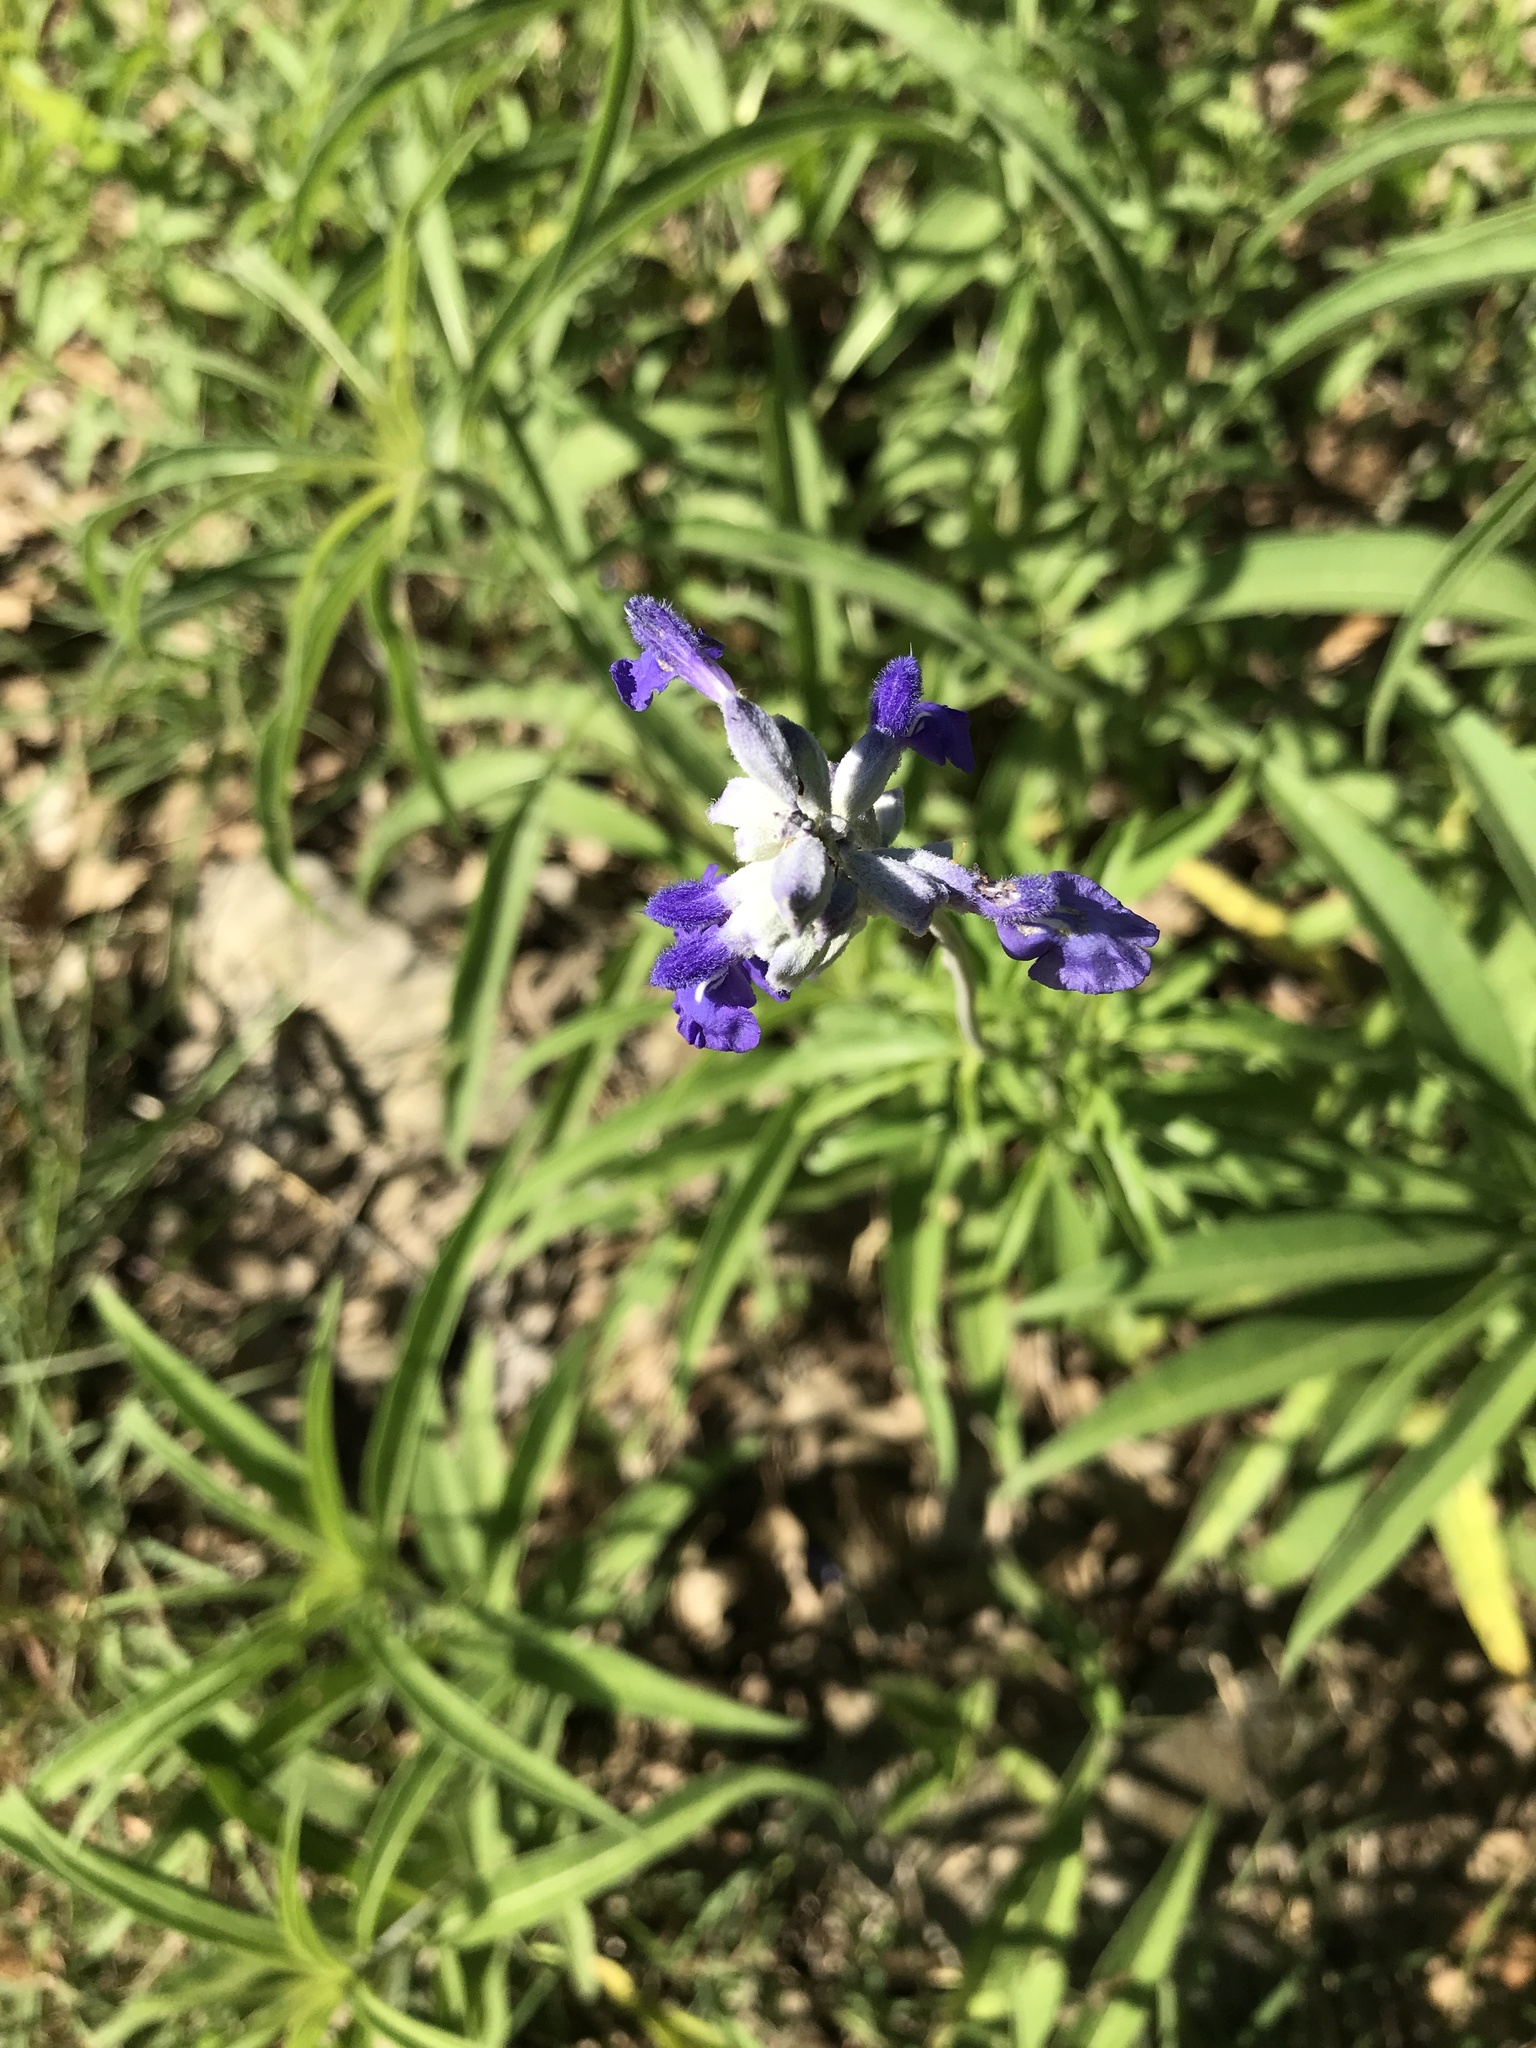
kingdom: Plantae
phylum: Tracheophyta
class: Magnoliopsida
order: Lamiales
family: Lamiaceae
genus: Salvia
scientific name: Salvia farinacea
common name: Mealy sage
